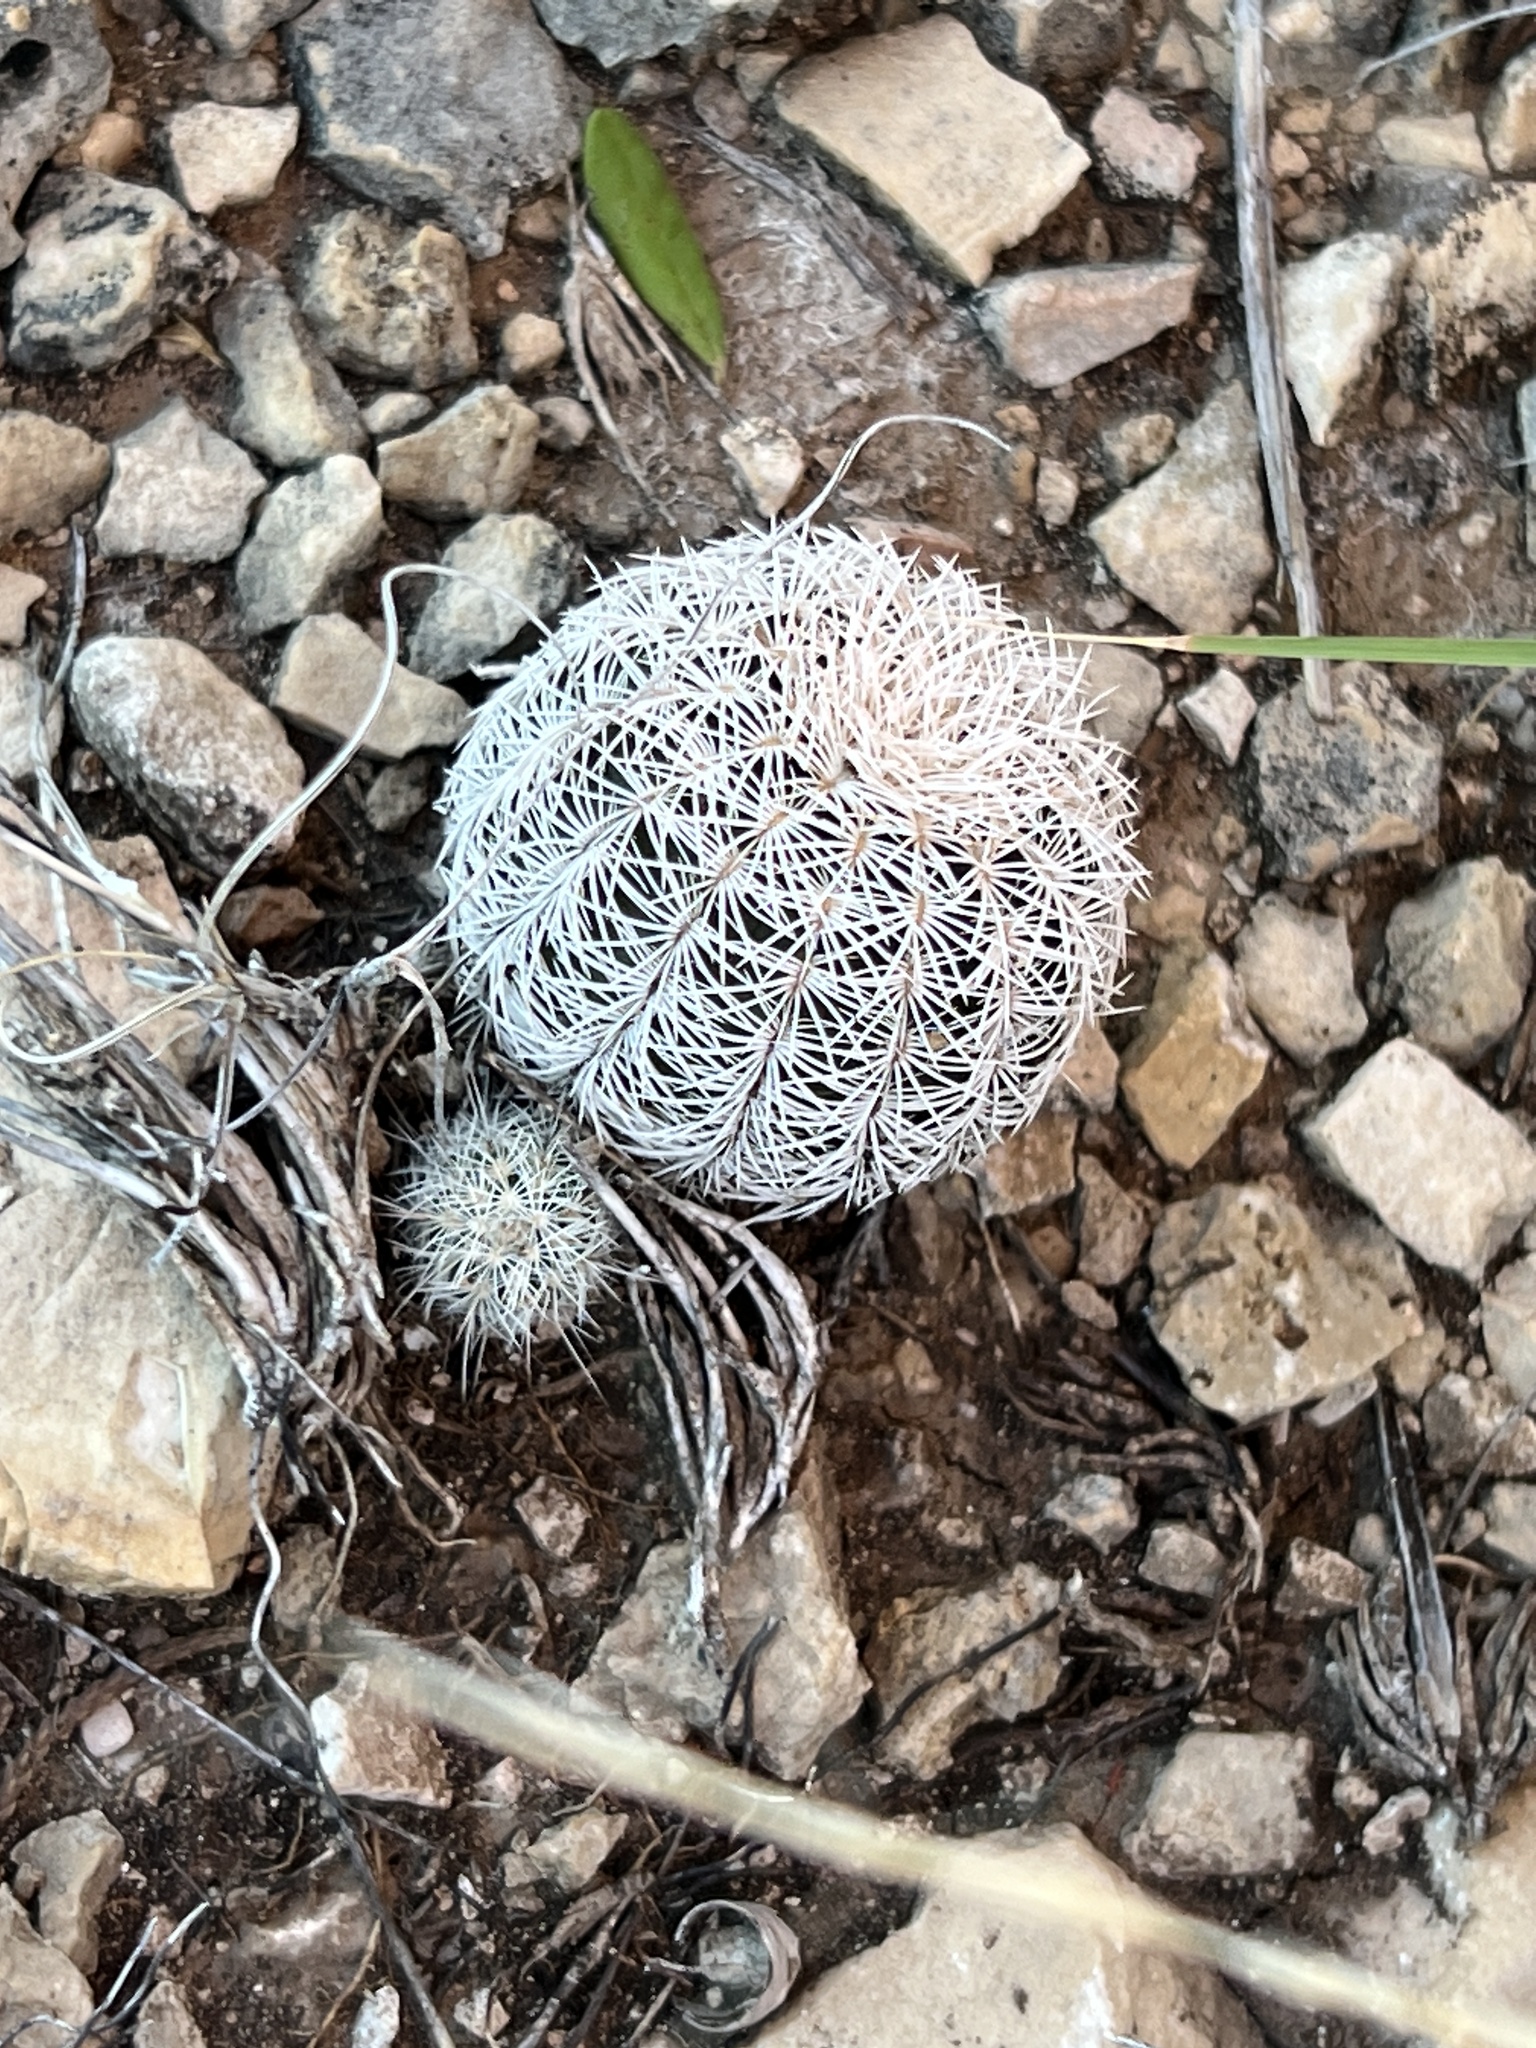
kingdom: Plantae
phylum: Tracheophyta
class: Magnoliopsida
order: Caryophyllales
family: Cactaceae
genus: Echinocereus
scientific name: Echinocereus reichenbachii
